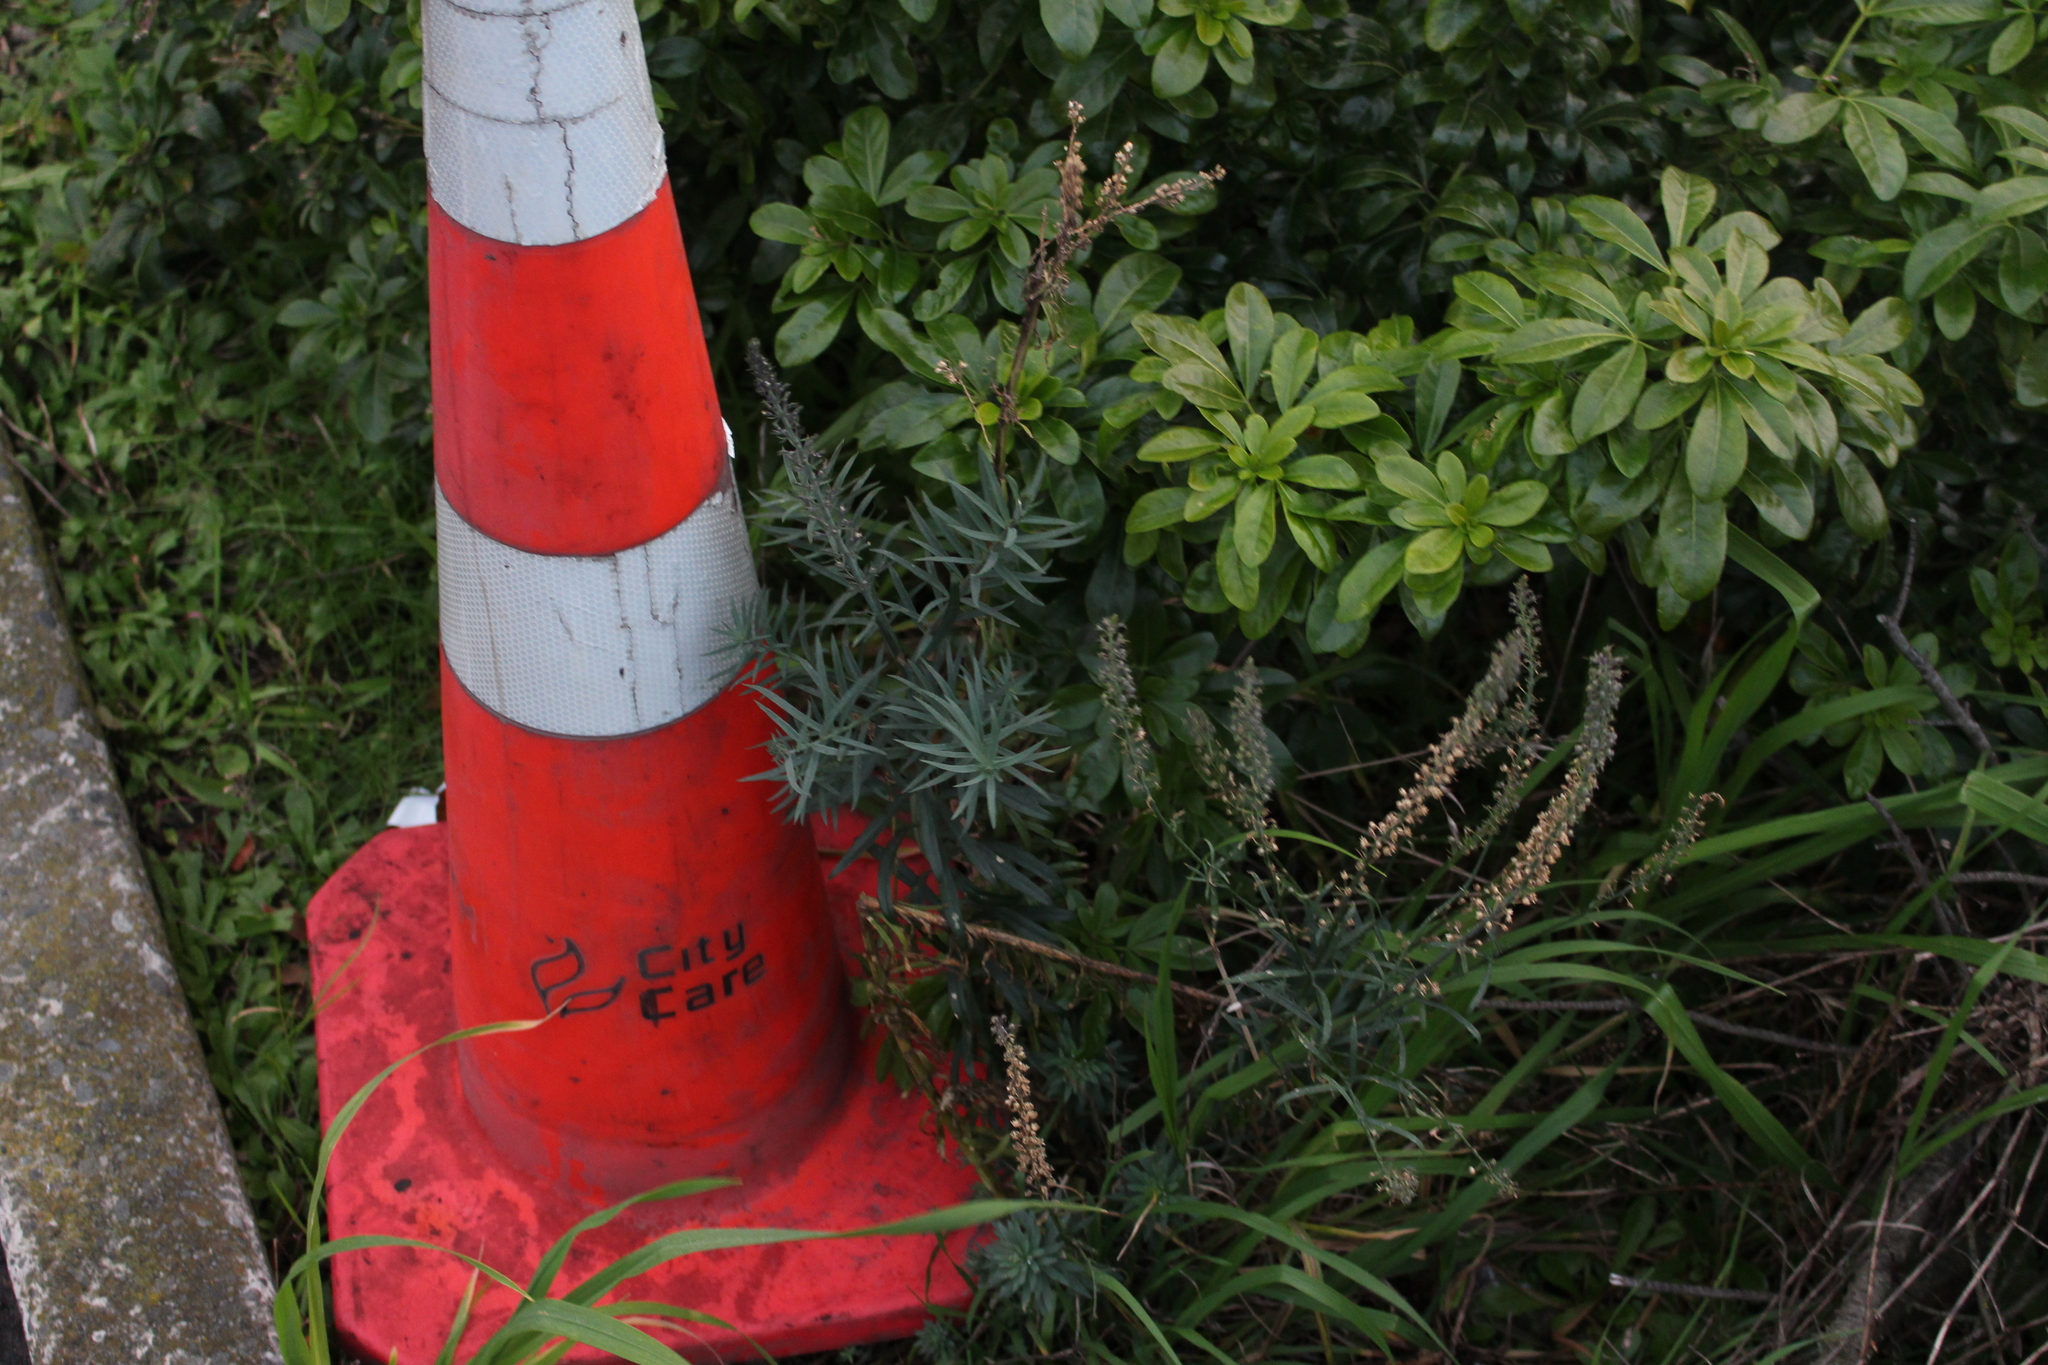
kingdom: Plantae
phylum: Tracheophyta
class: Magnoliopsida
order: Lamiales
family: Plantaginaceae
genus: Linaria
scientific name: Linaria purpurea
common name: Purple toadflax
